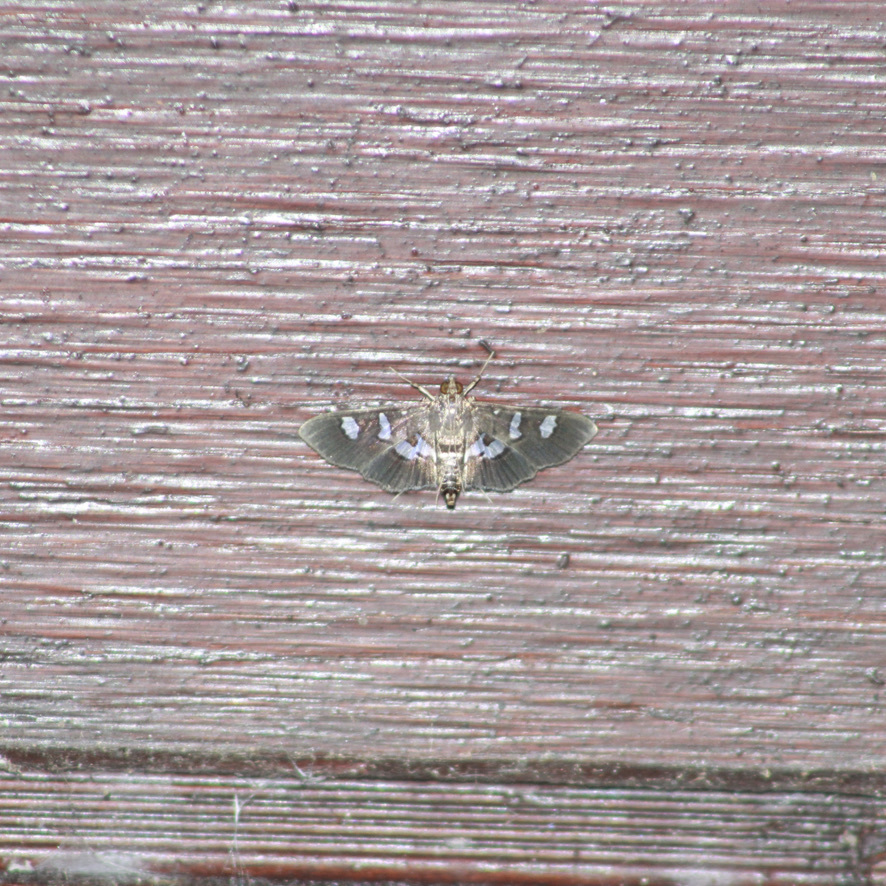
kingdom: Animalia
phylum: Arthropoda
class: Insecta
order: Lepidoptera
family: Crambidae
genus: Desmia
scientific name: Desmia tages
